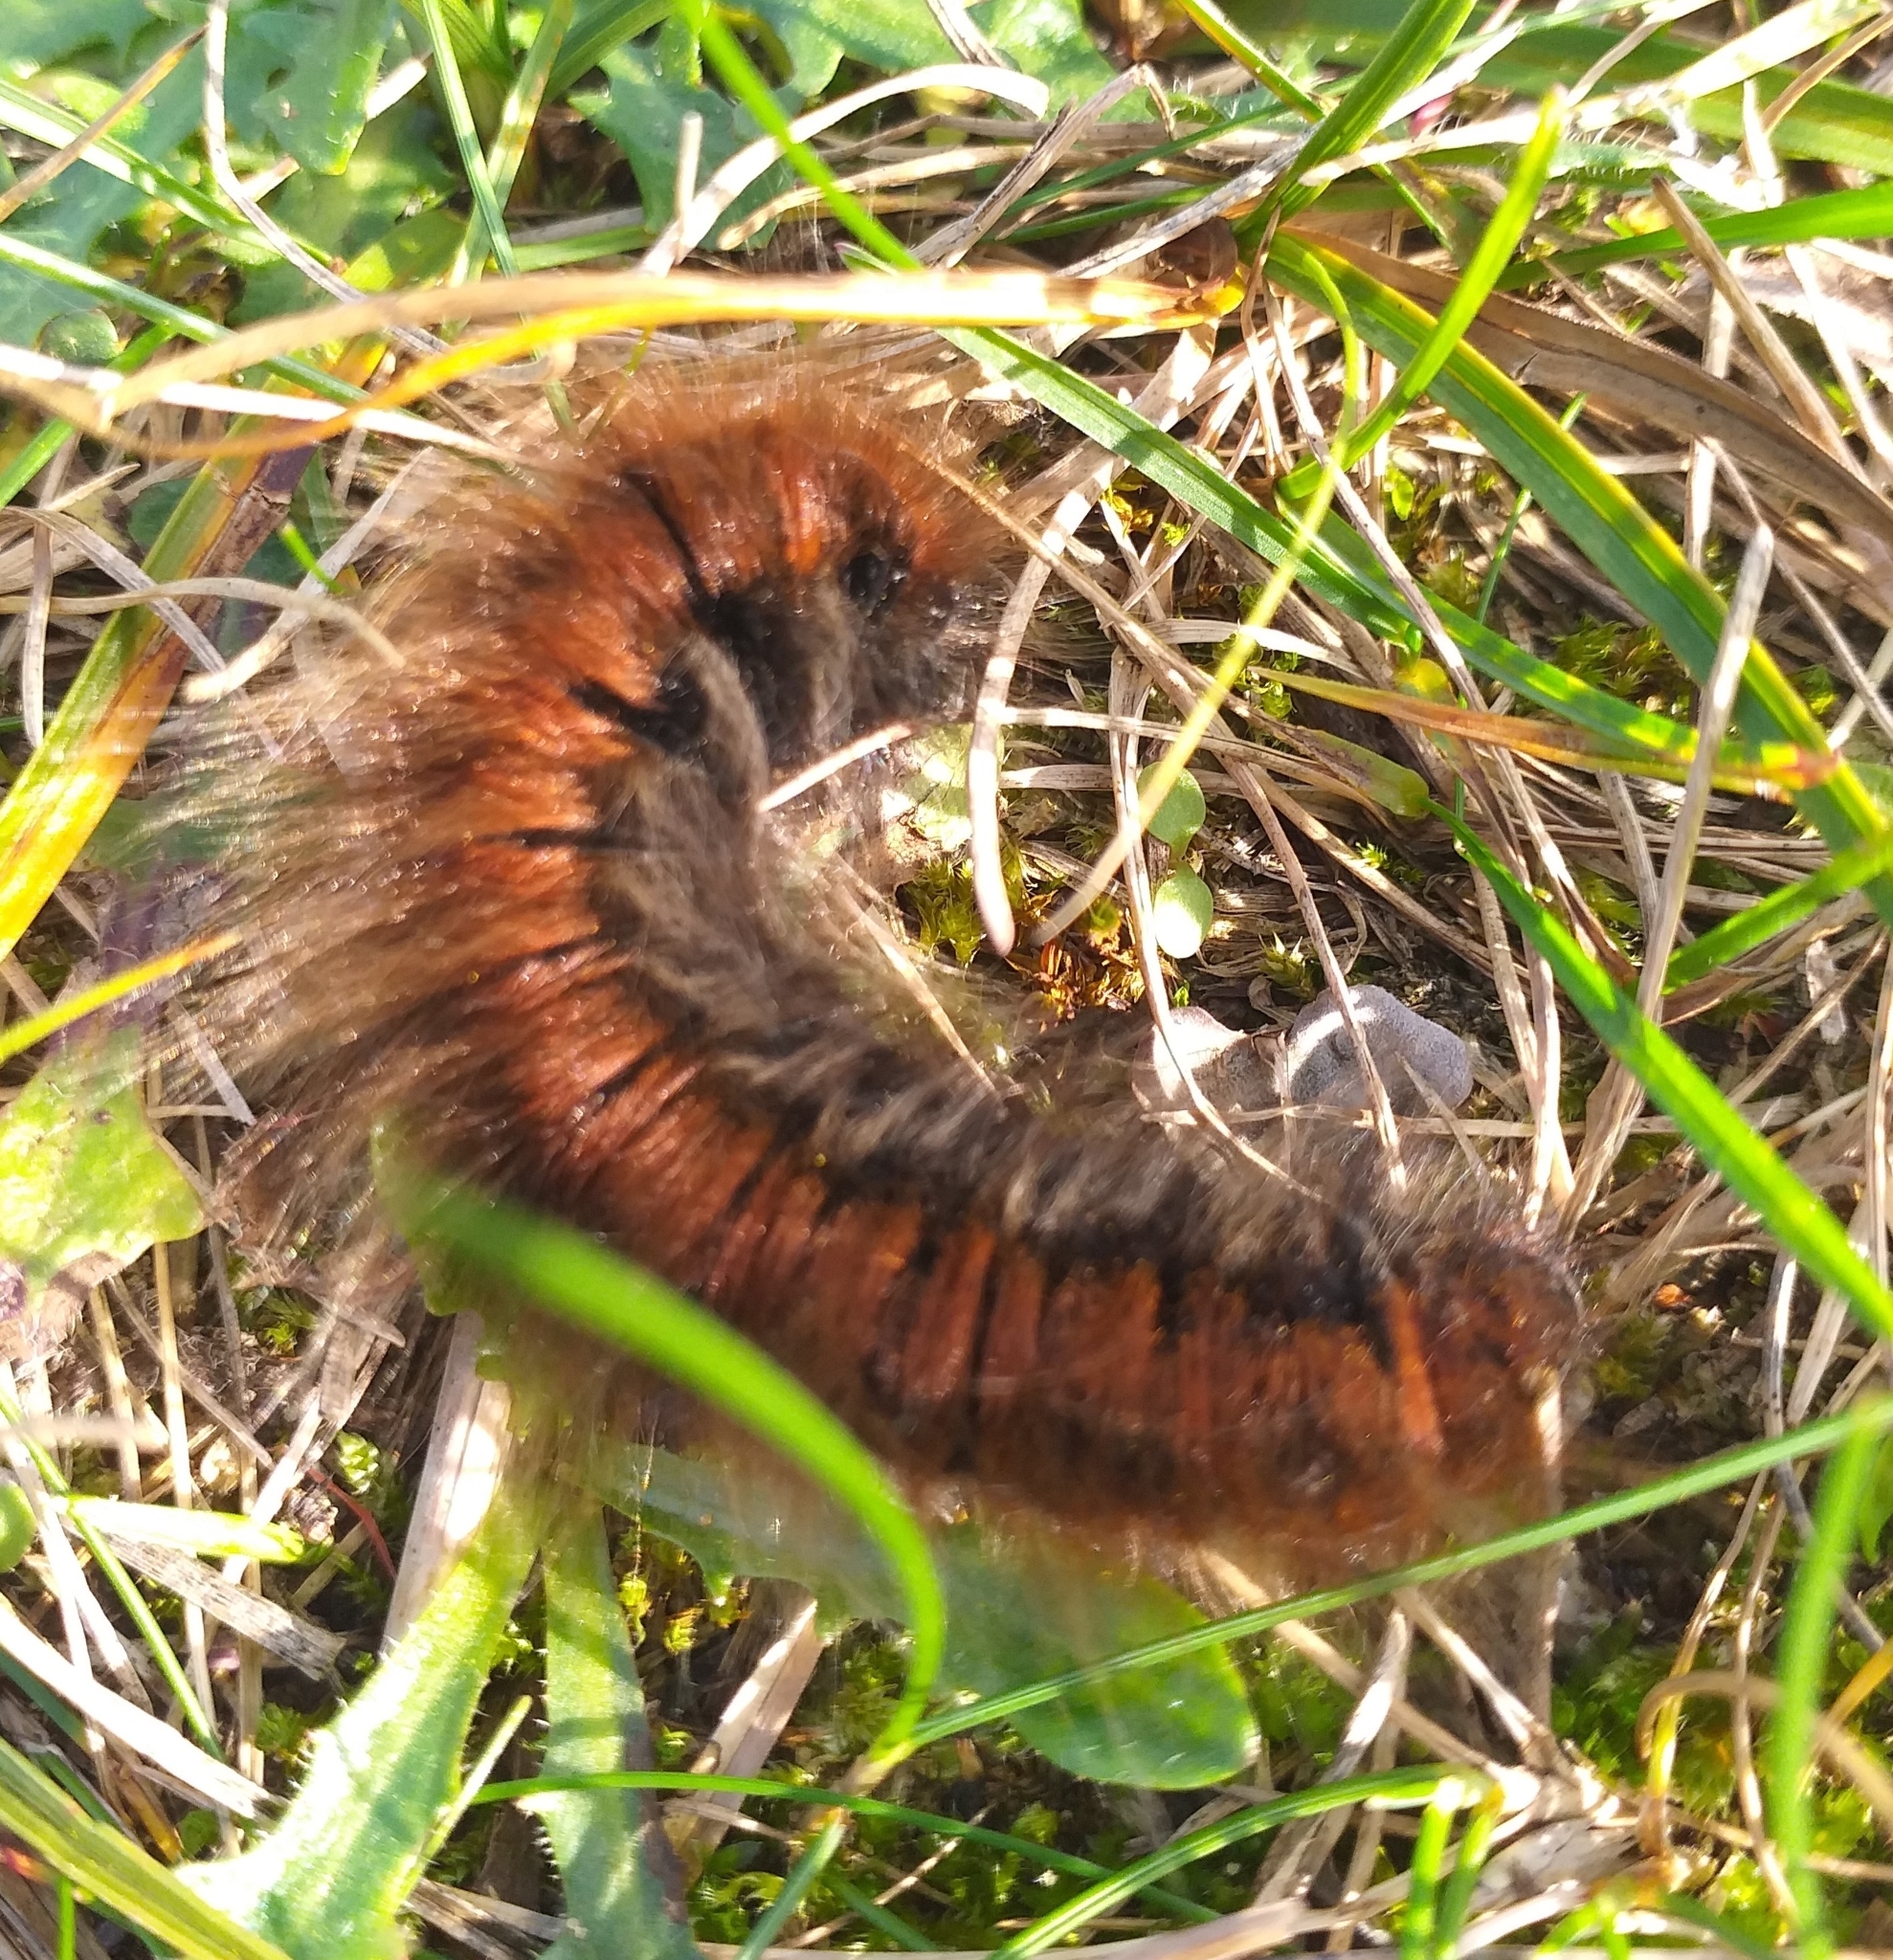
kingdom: Animalia
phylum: Arthropoda
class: Insecta
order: Lepidoptera
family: Lasiocampidae
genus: Macrothylacia
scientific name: Macrothylacia rubi
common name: Fox moth
